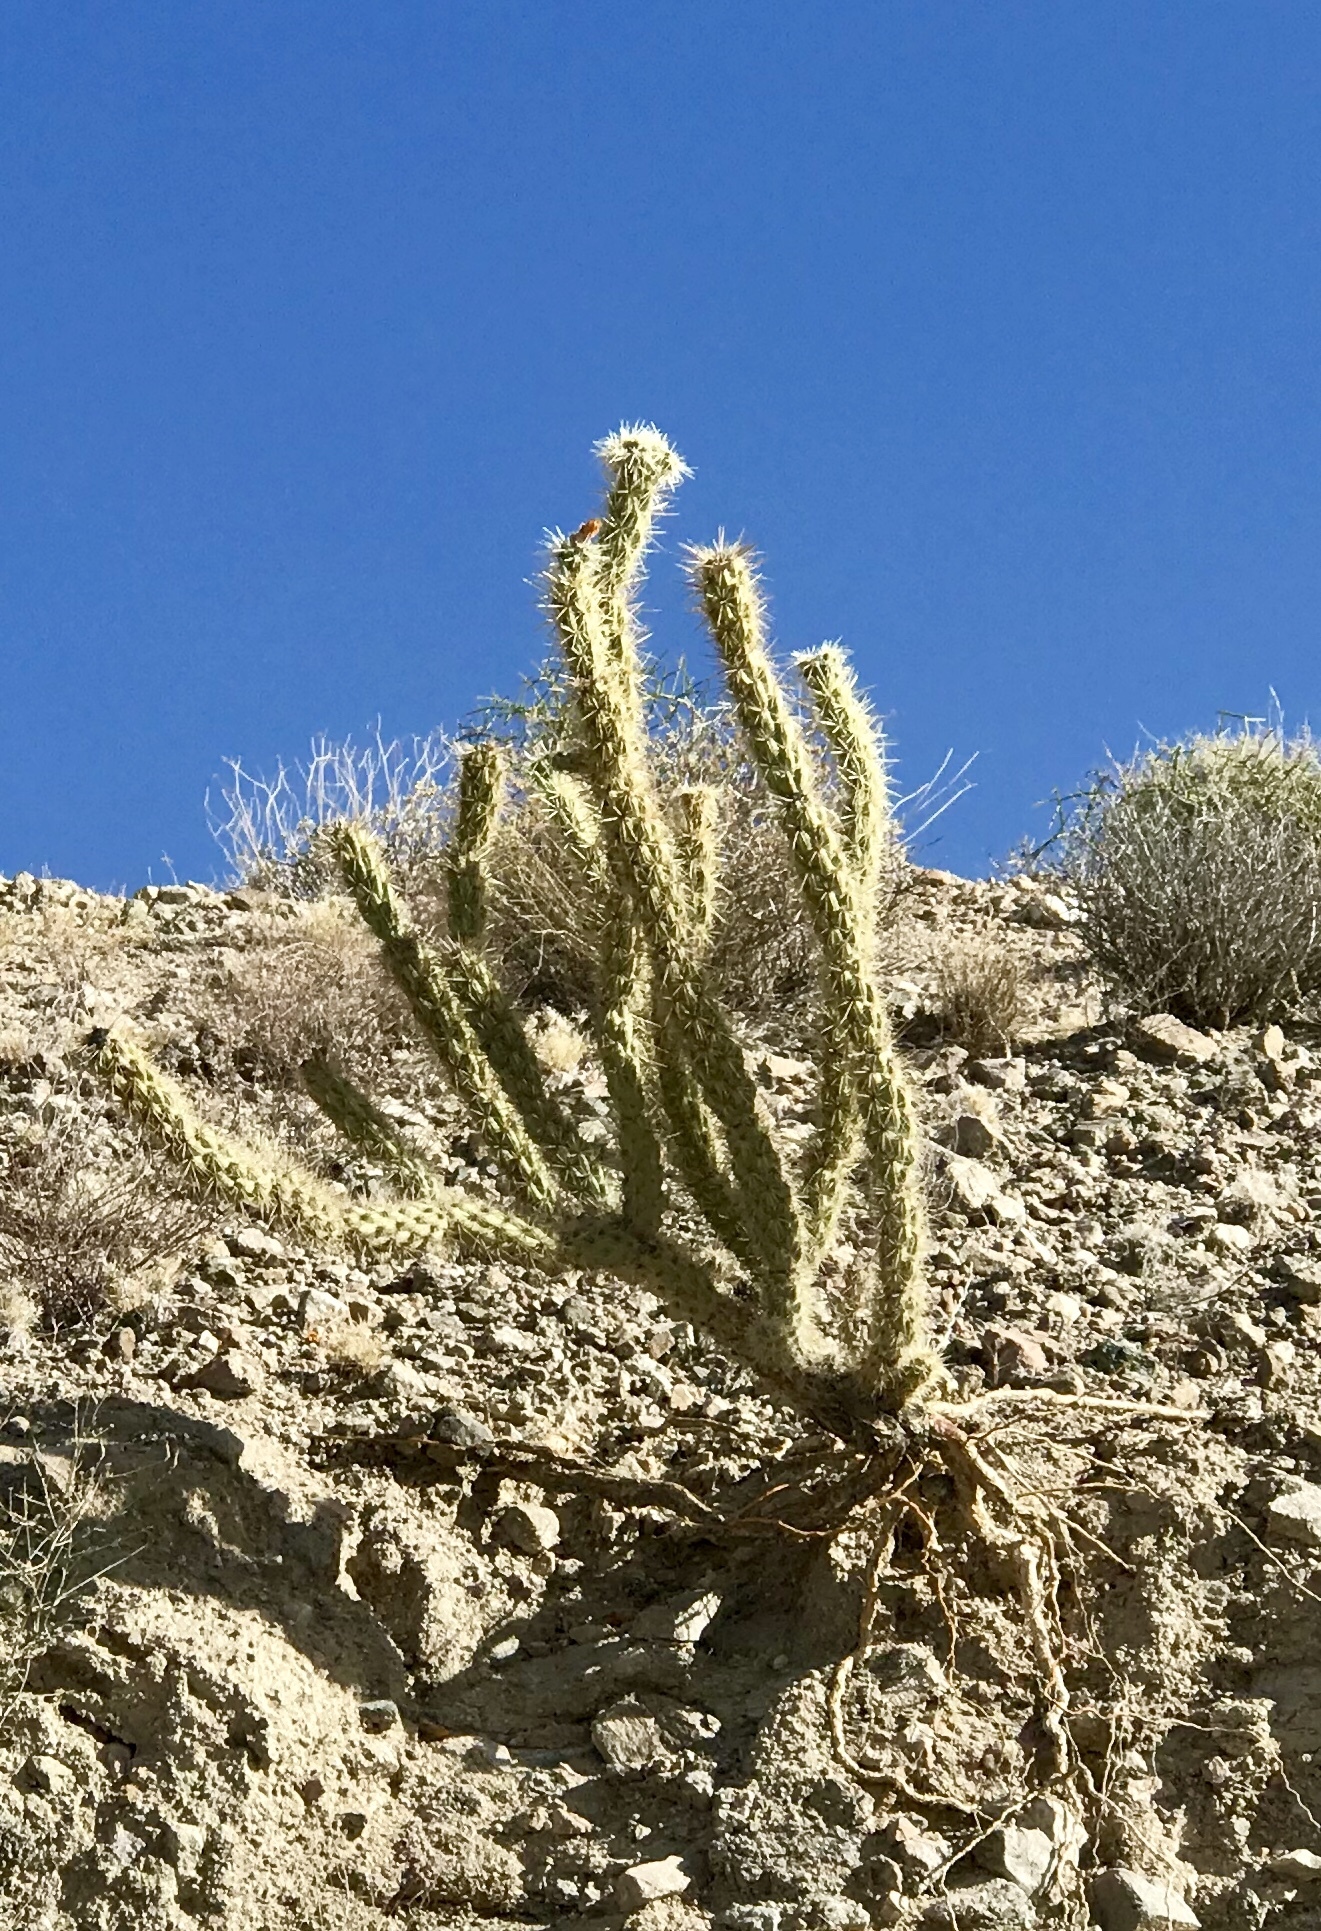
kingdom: Plantae
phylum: Tracheophyta
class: Magnoliopsida
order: Caryophyllales
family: Cactaceae
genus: Cylindropuntia
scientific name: Cylindropuntia acanthocarpa
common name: Buckhorn cholla
